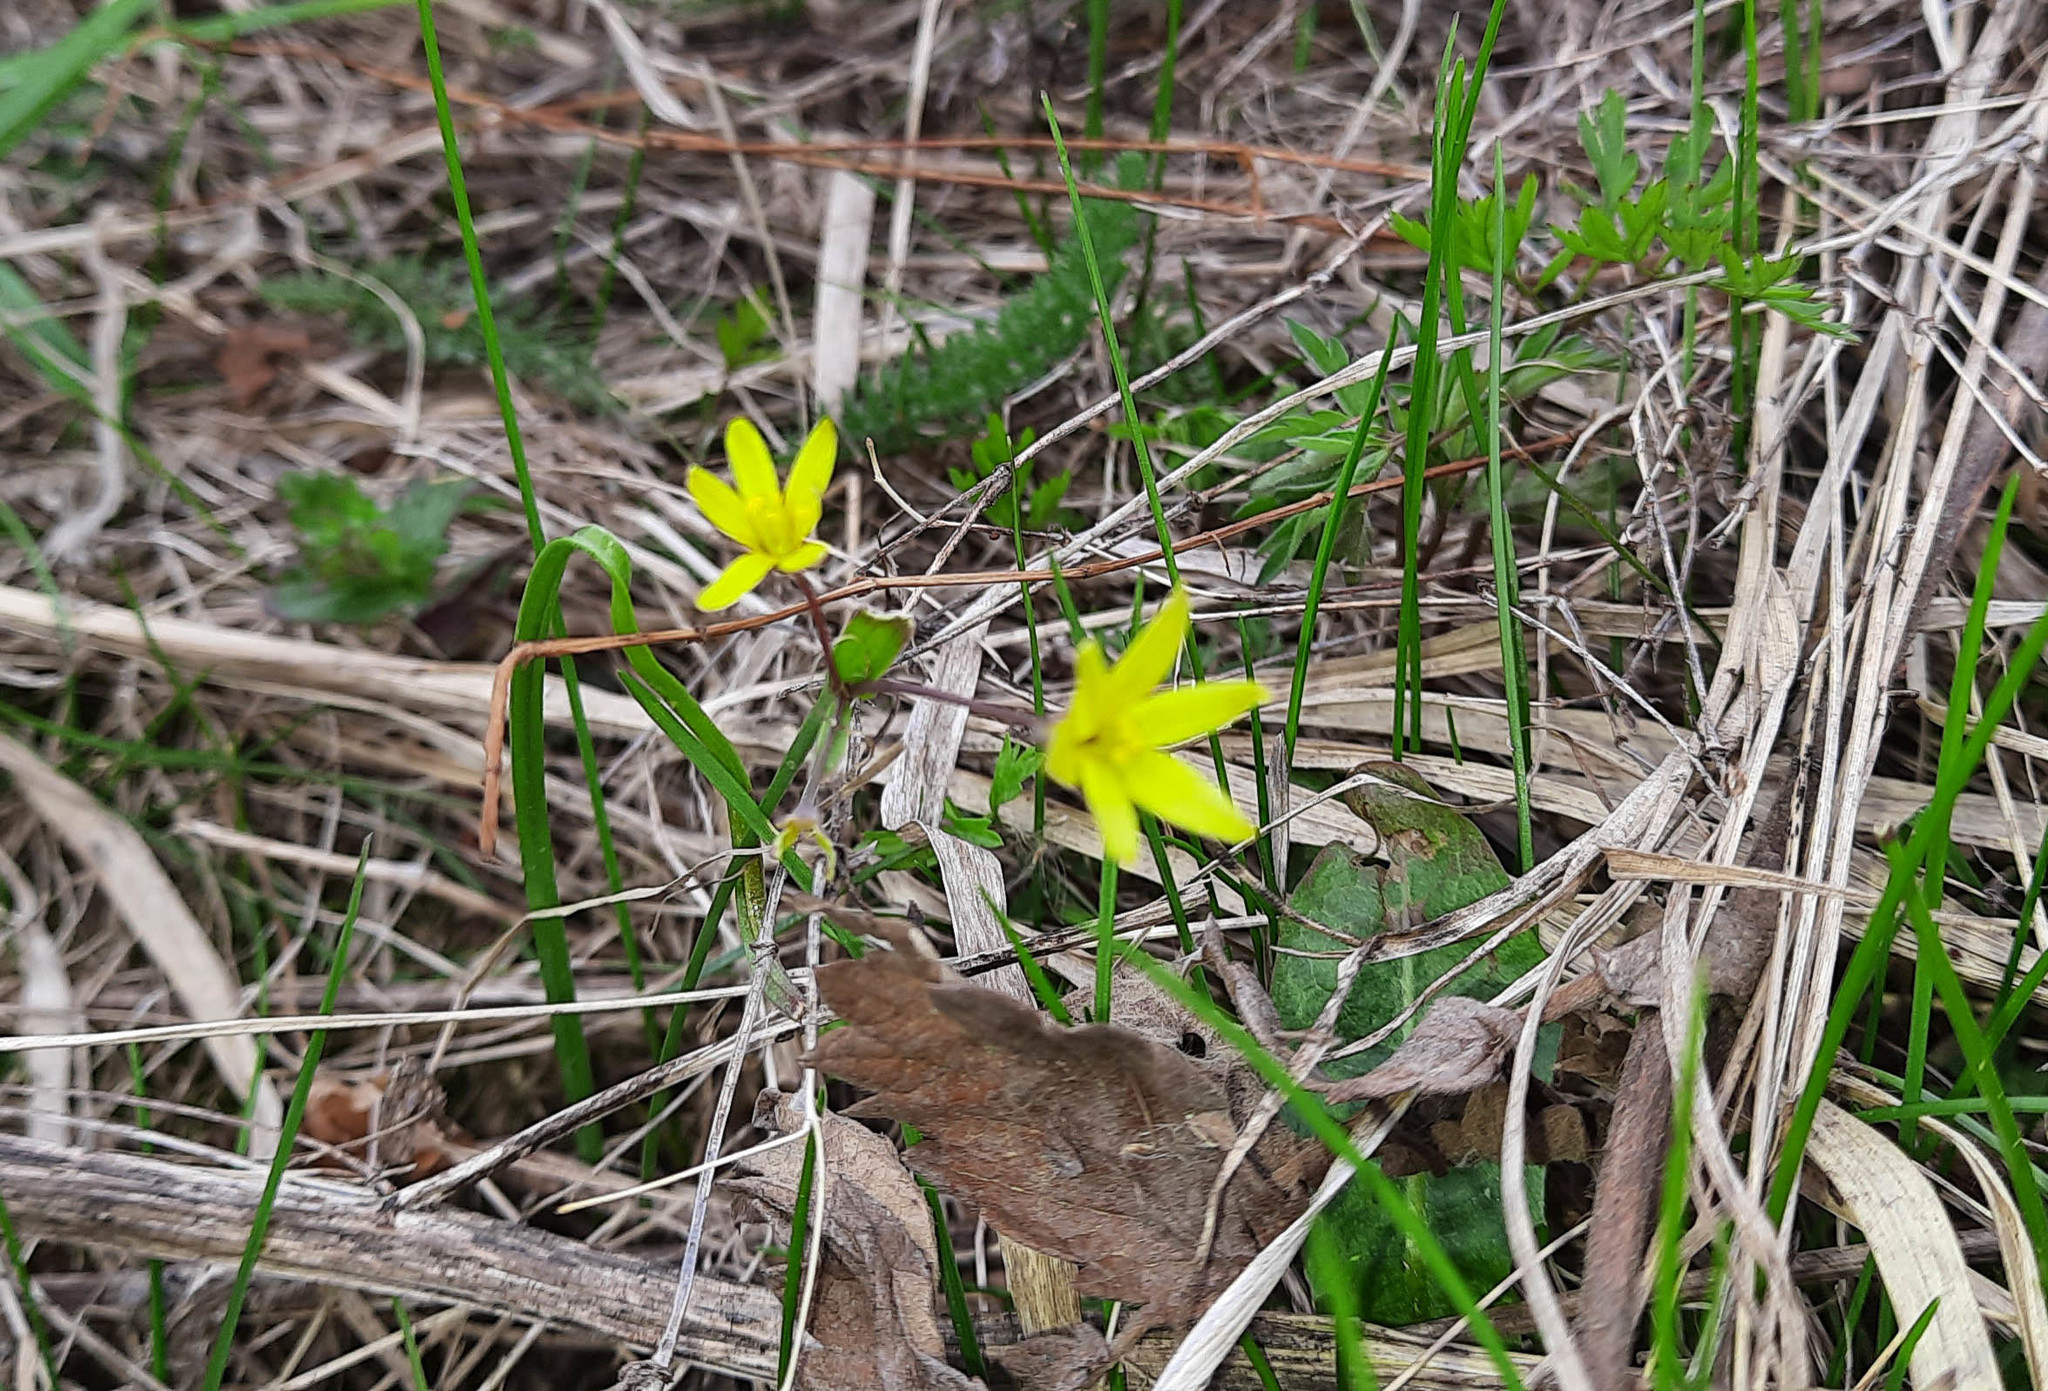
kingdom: Plantae
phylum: Tracheophyta
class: Liliopsida
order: Liliales
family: Liliaceae
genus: Gagea
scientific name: Gagea fragifera
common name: Lily
